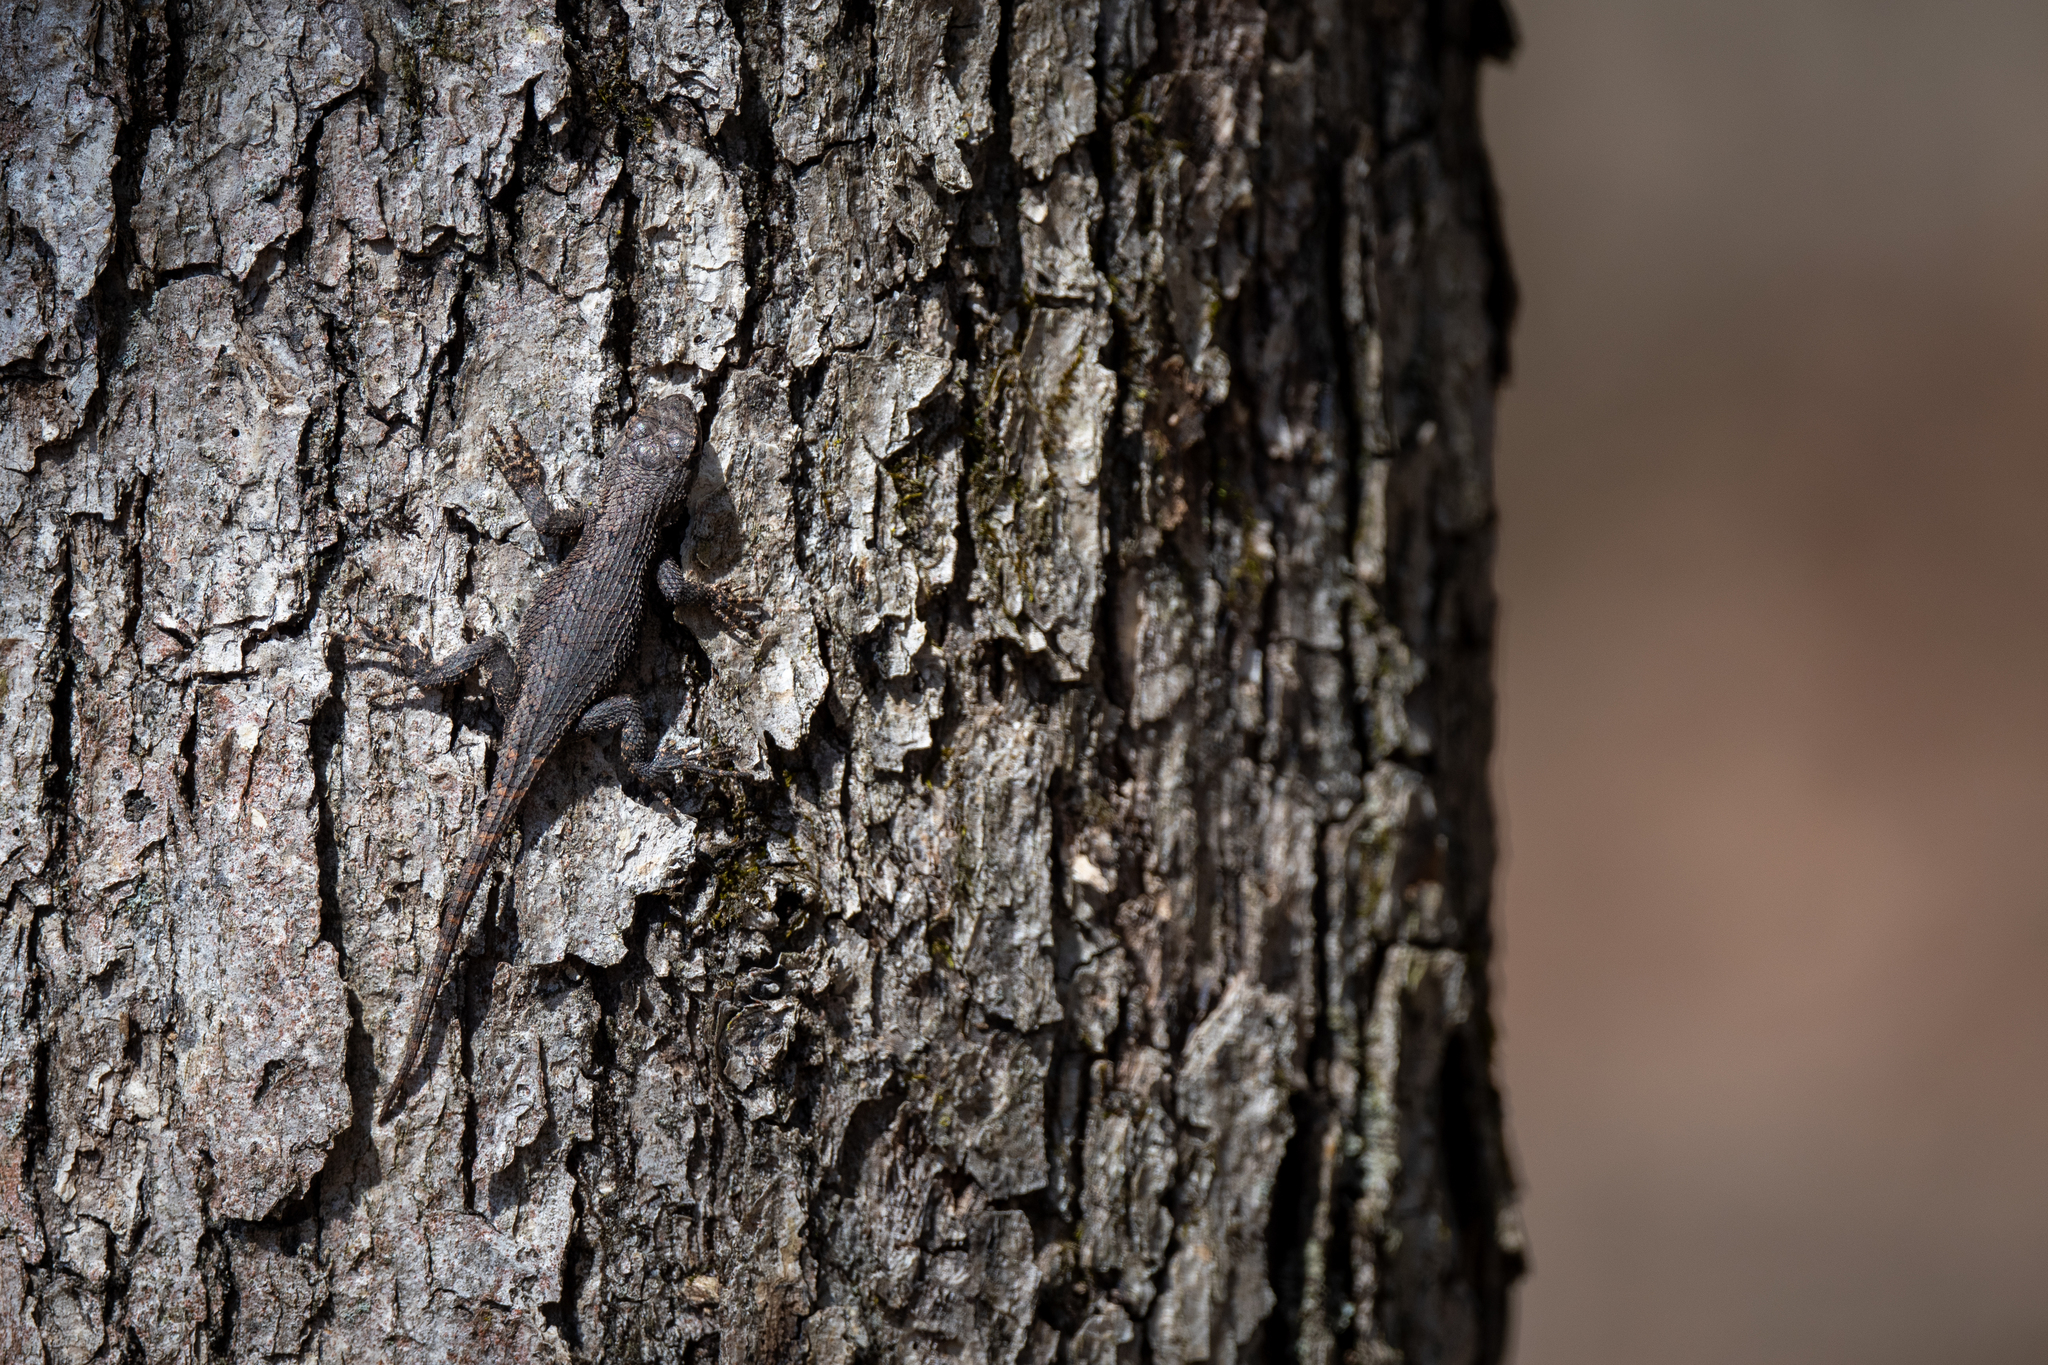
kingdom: Animalia
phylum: Chordata
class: Squamata
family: Phrynosomatidae
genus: Sceloporus
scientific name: Sceloporus undulatus
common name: Eastern fence lizard
